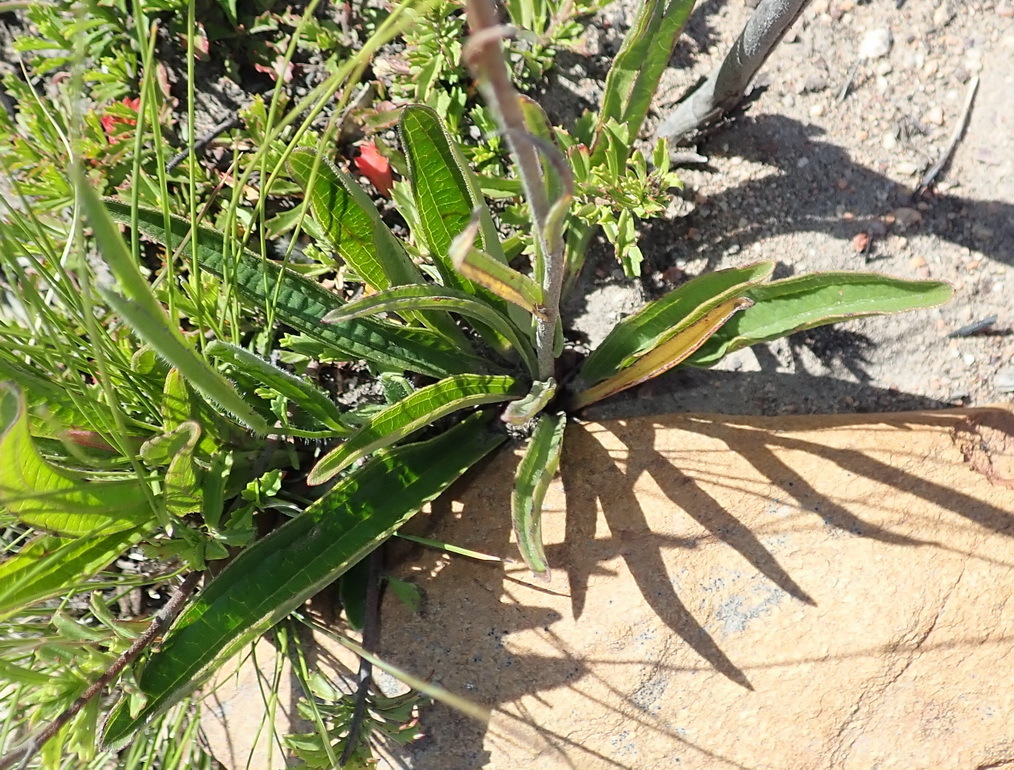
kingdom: Plantae
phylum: Tracheophyta
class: Magnoliopsida
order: Asterales
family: Asteraceae
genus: Helichrysum
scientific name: Helichrysum nudifolium
